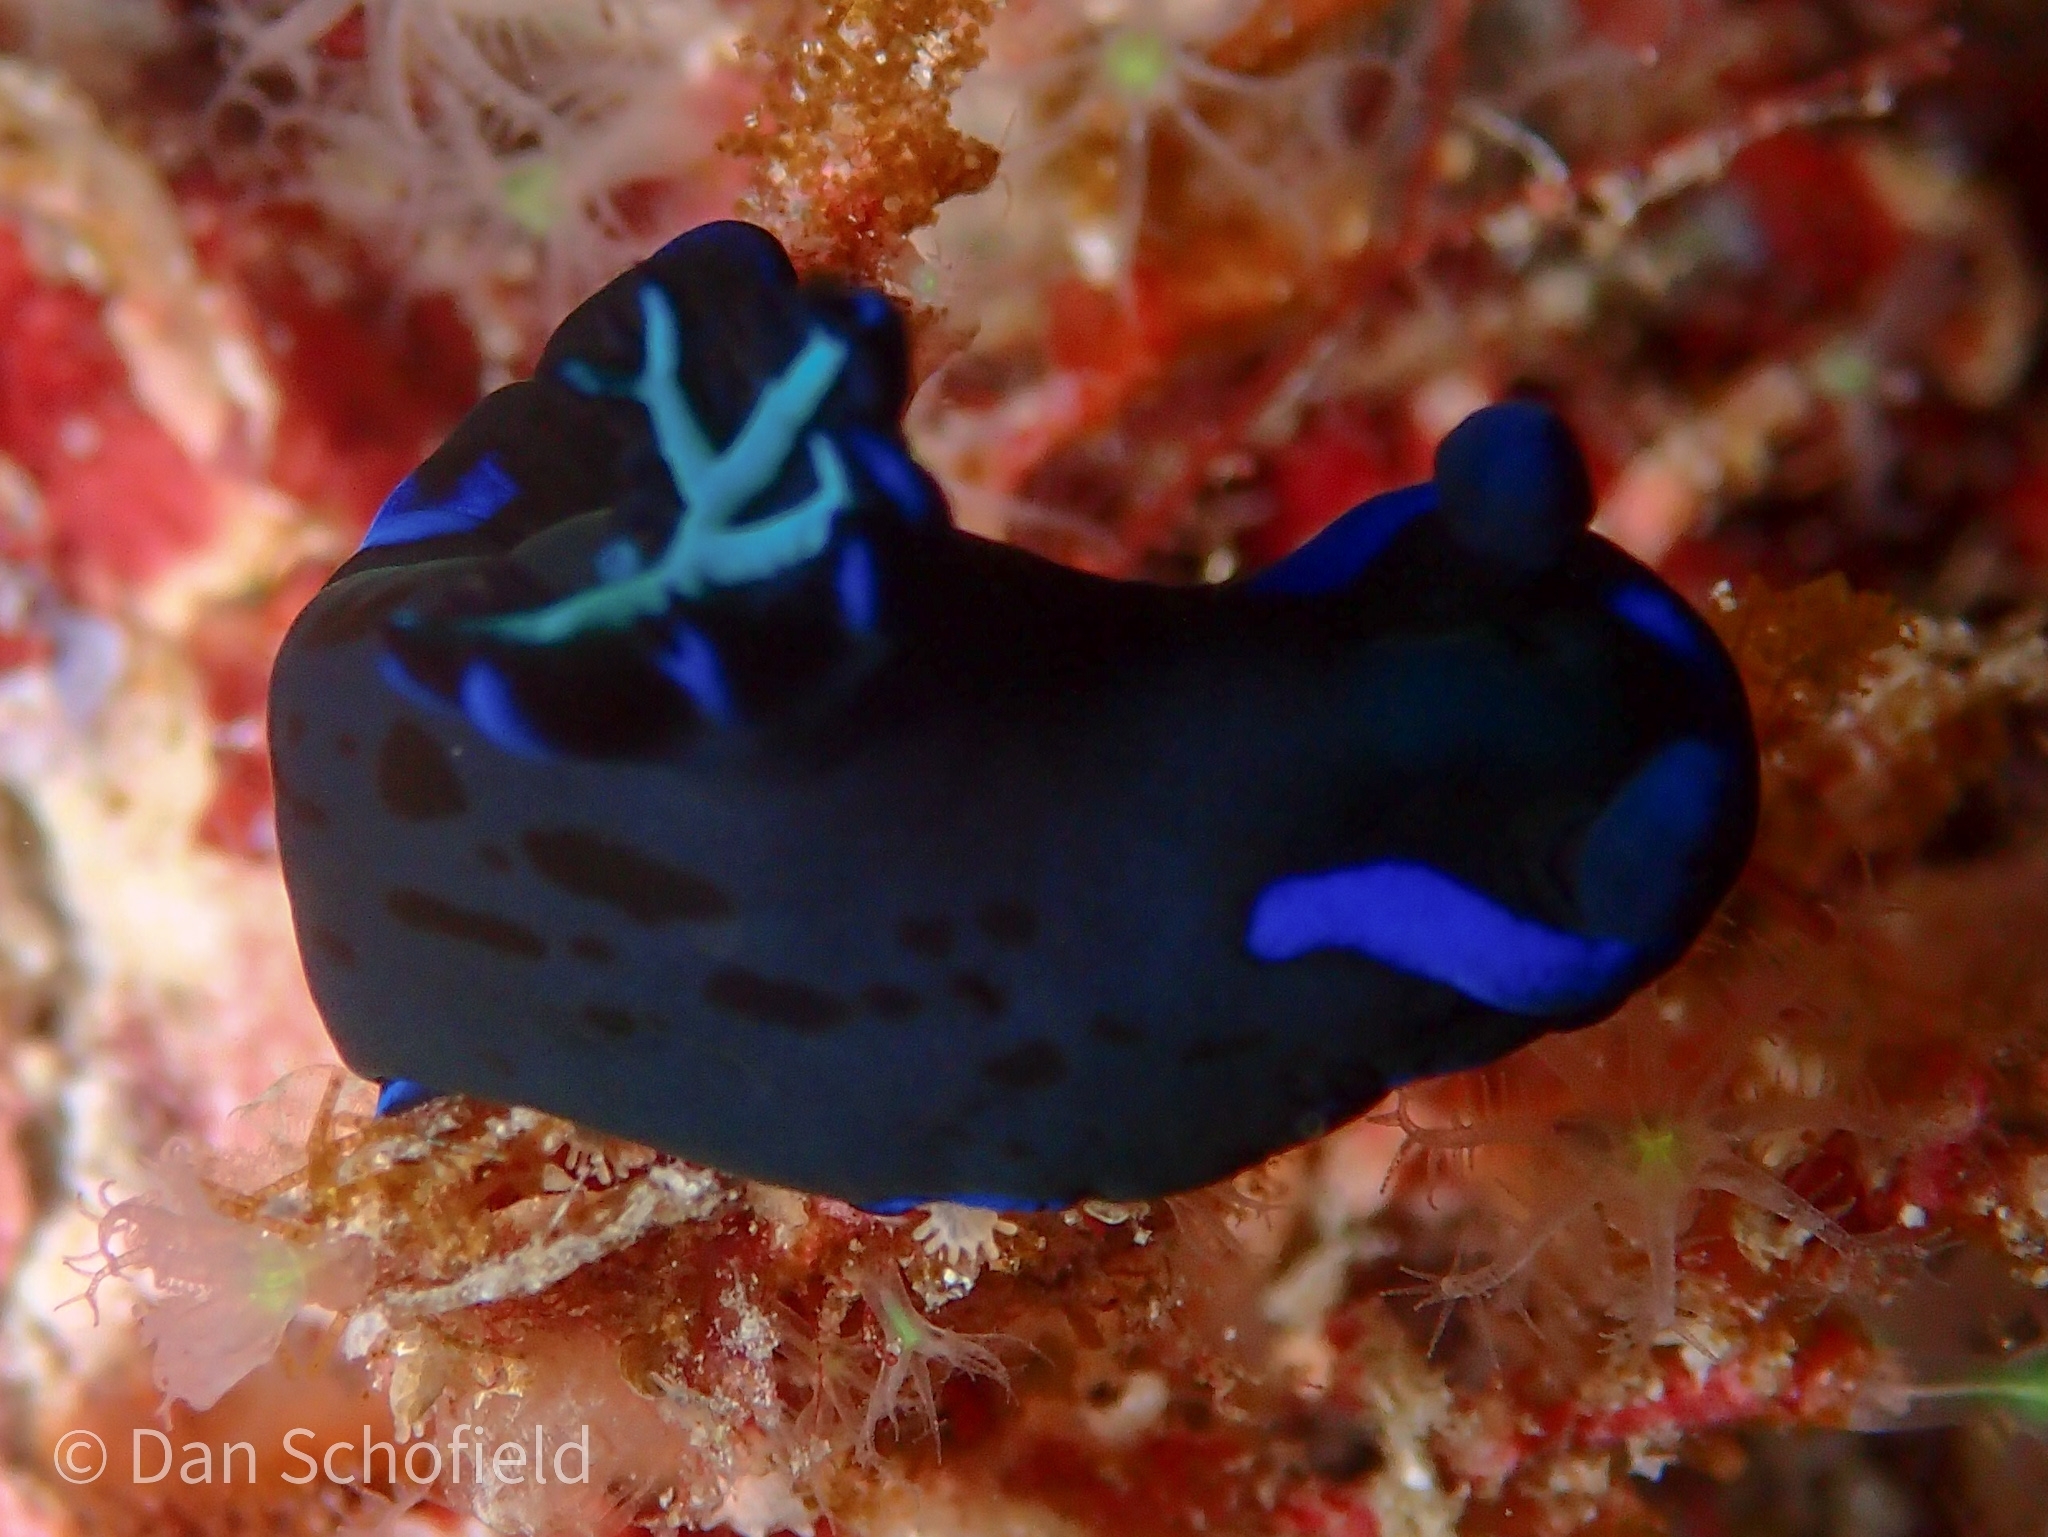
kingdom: Animalia
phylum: Mollusca
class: Gastropoda
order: Nudibranchia
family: Polyceridae
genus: Tambja
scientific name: Tambja morosa
